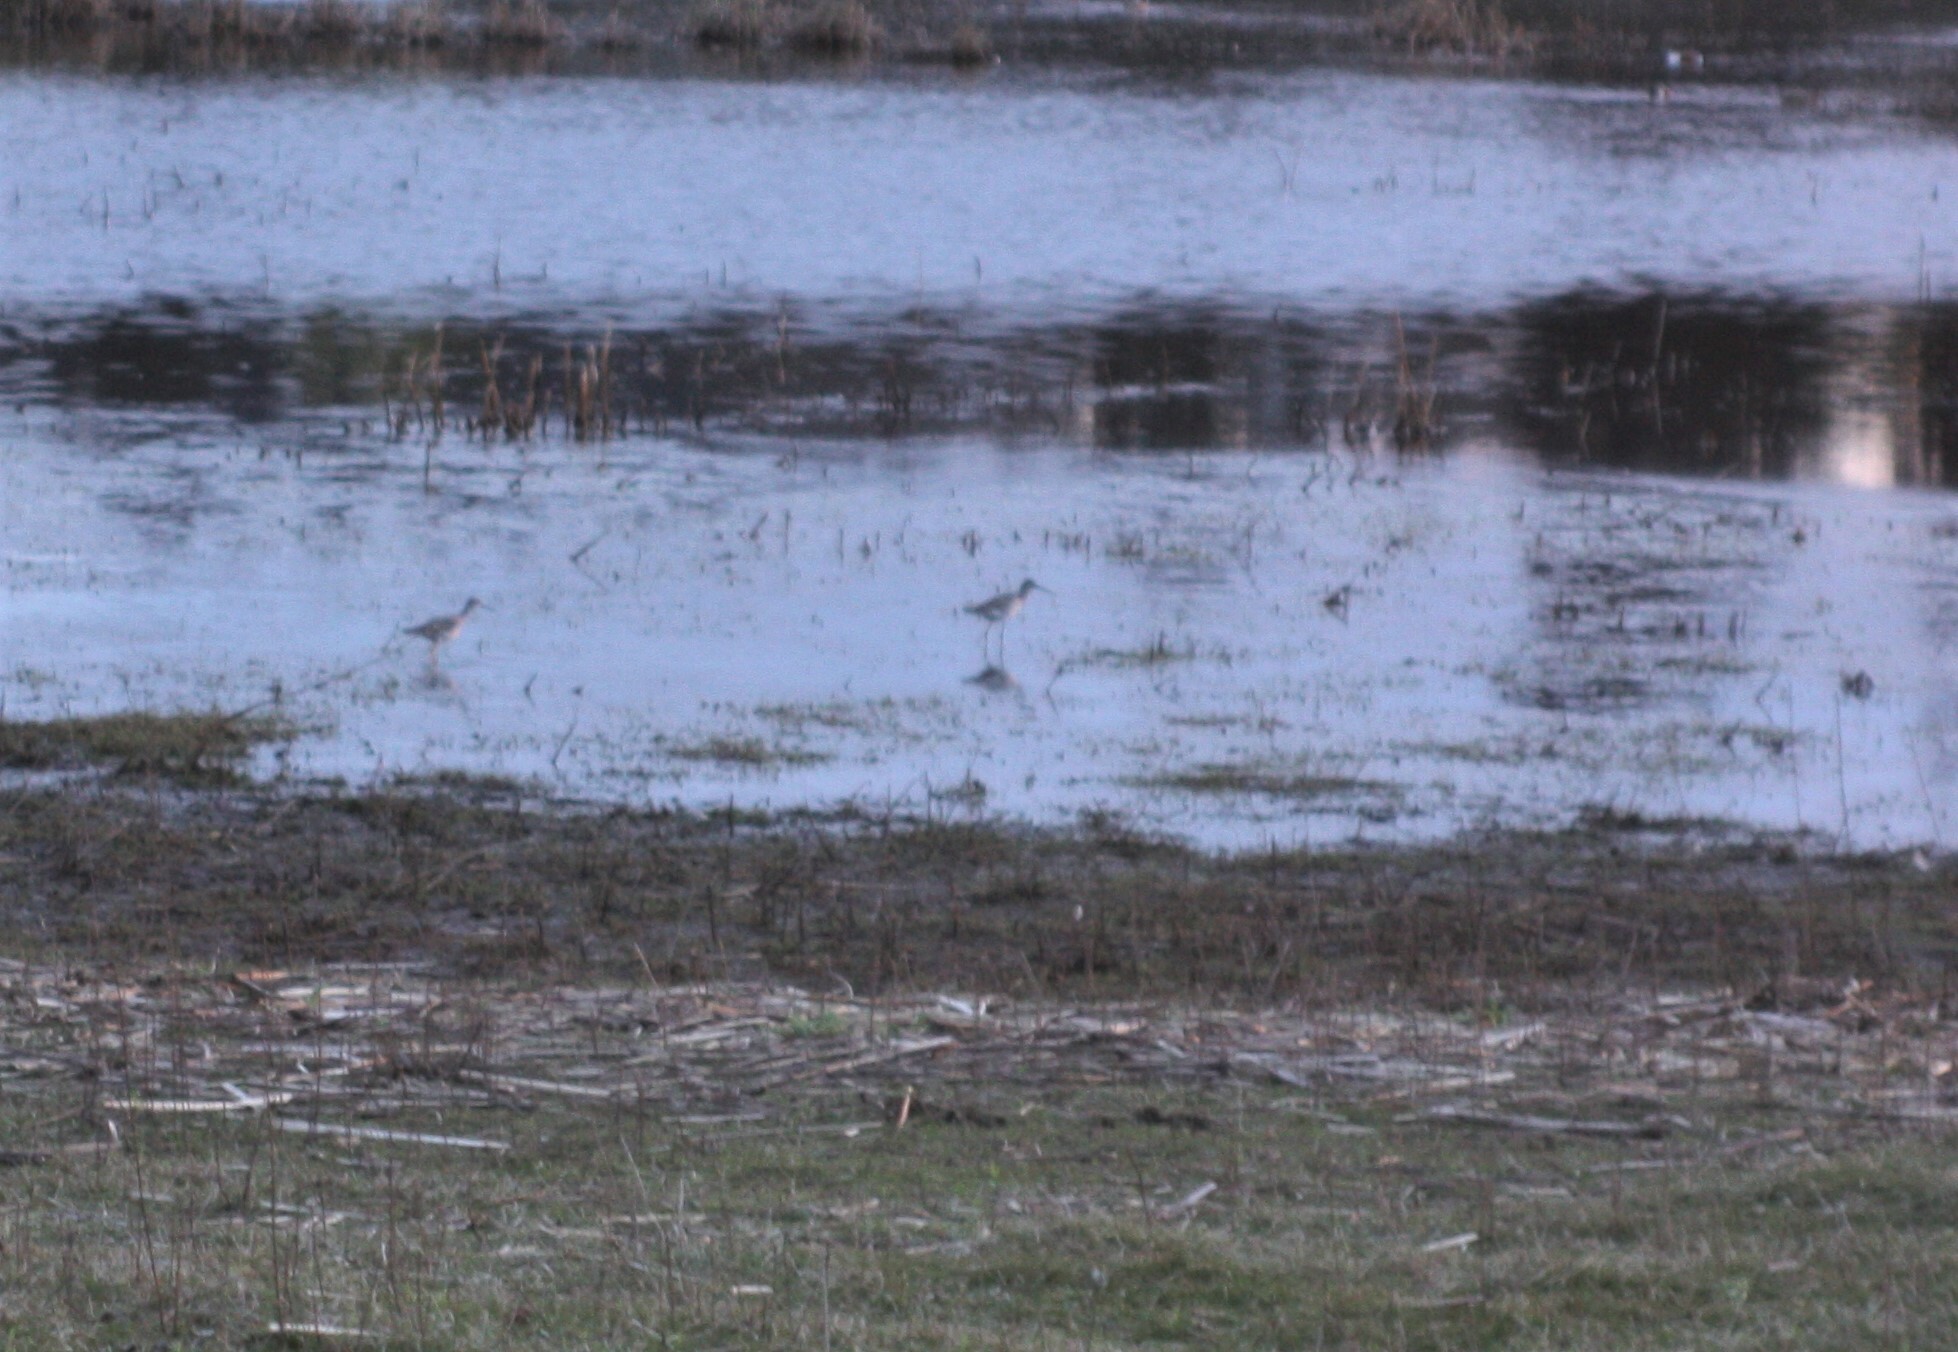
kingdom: Animalia
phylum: Chordata
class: Aves
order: Charadriiformes
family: Scolopacidae
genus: Tringa
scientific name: Tringa melanoleuca
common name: Greater yellowlegs
